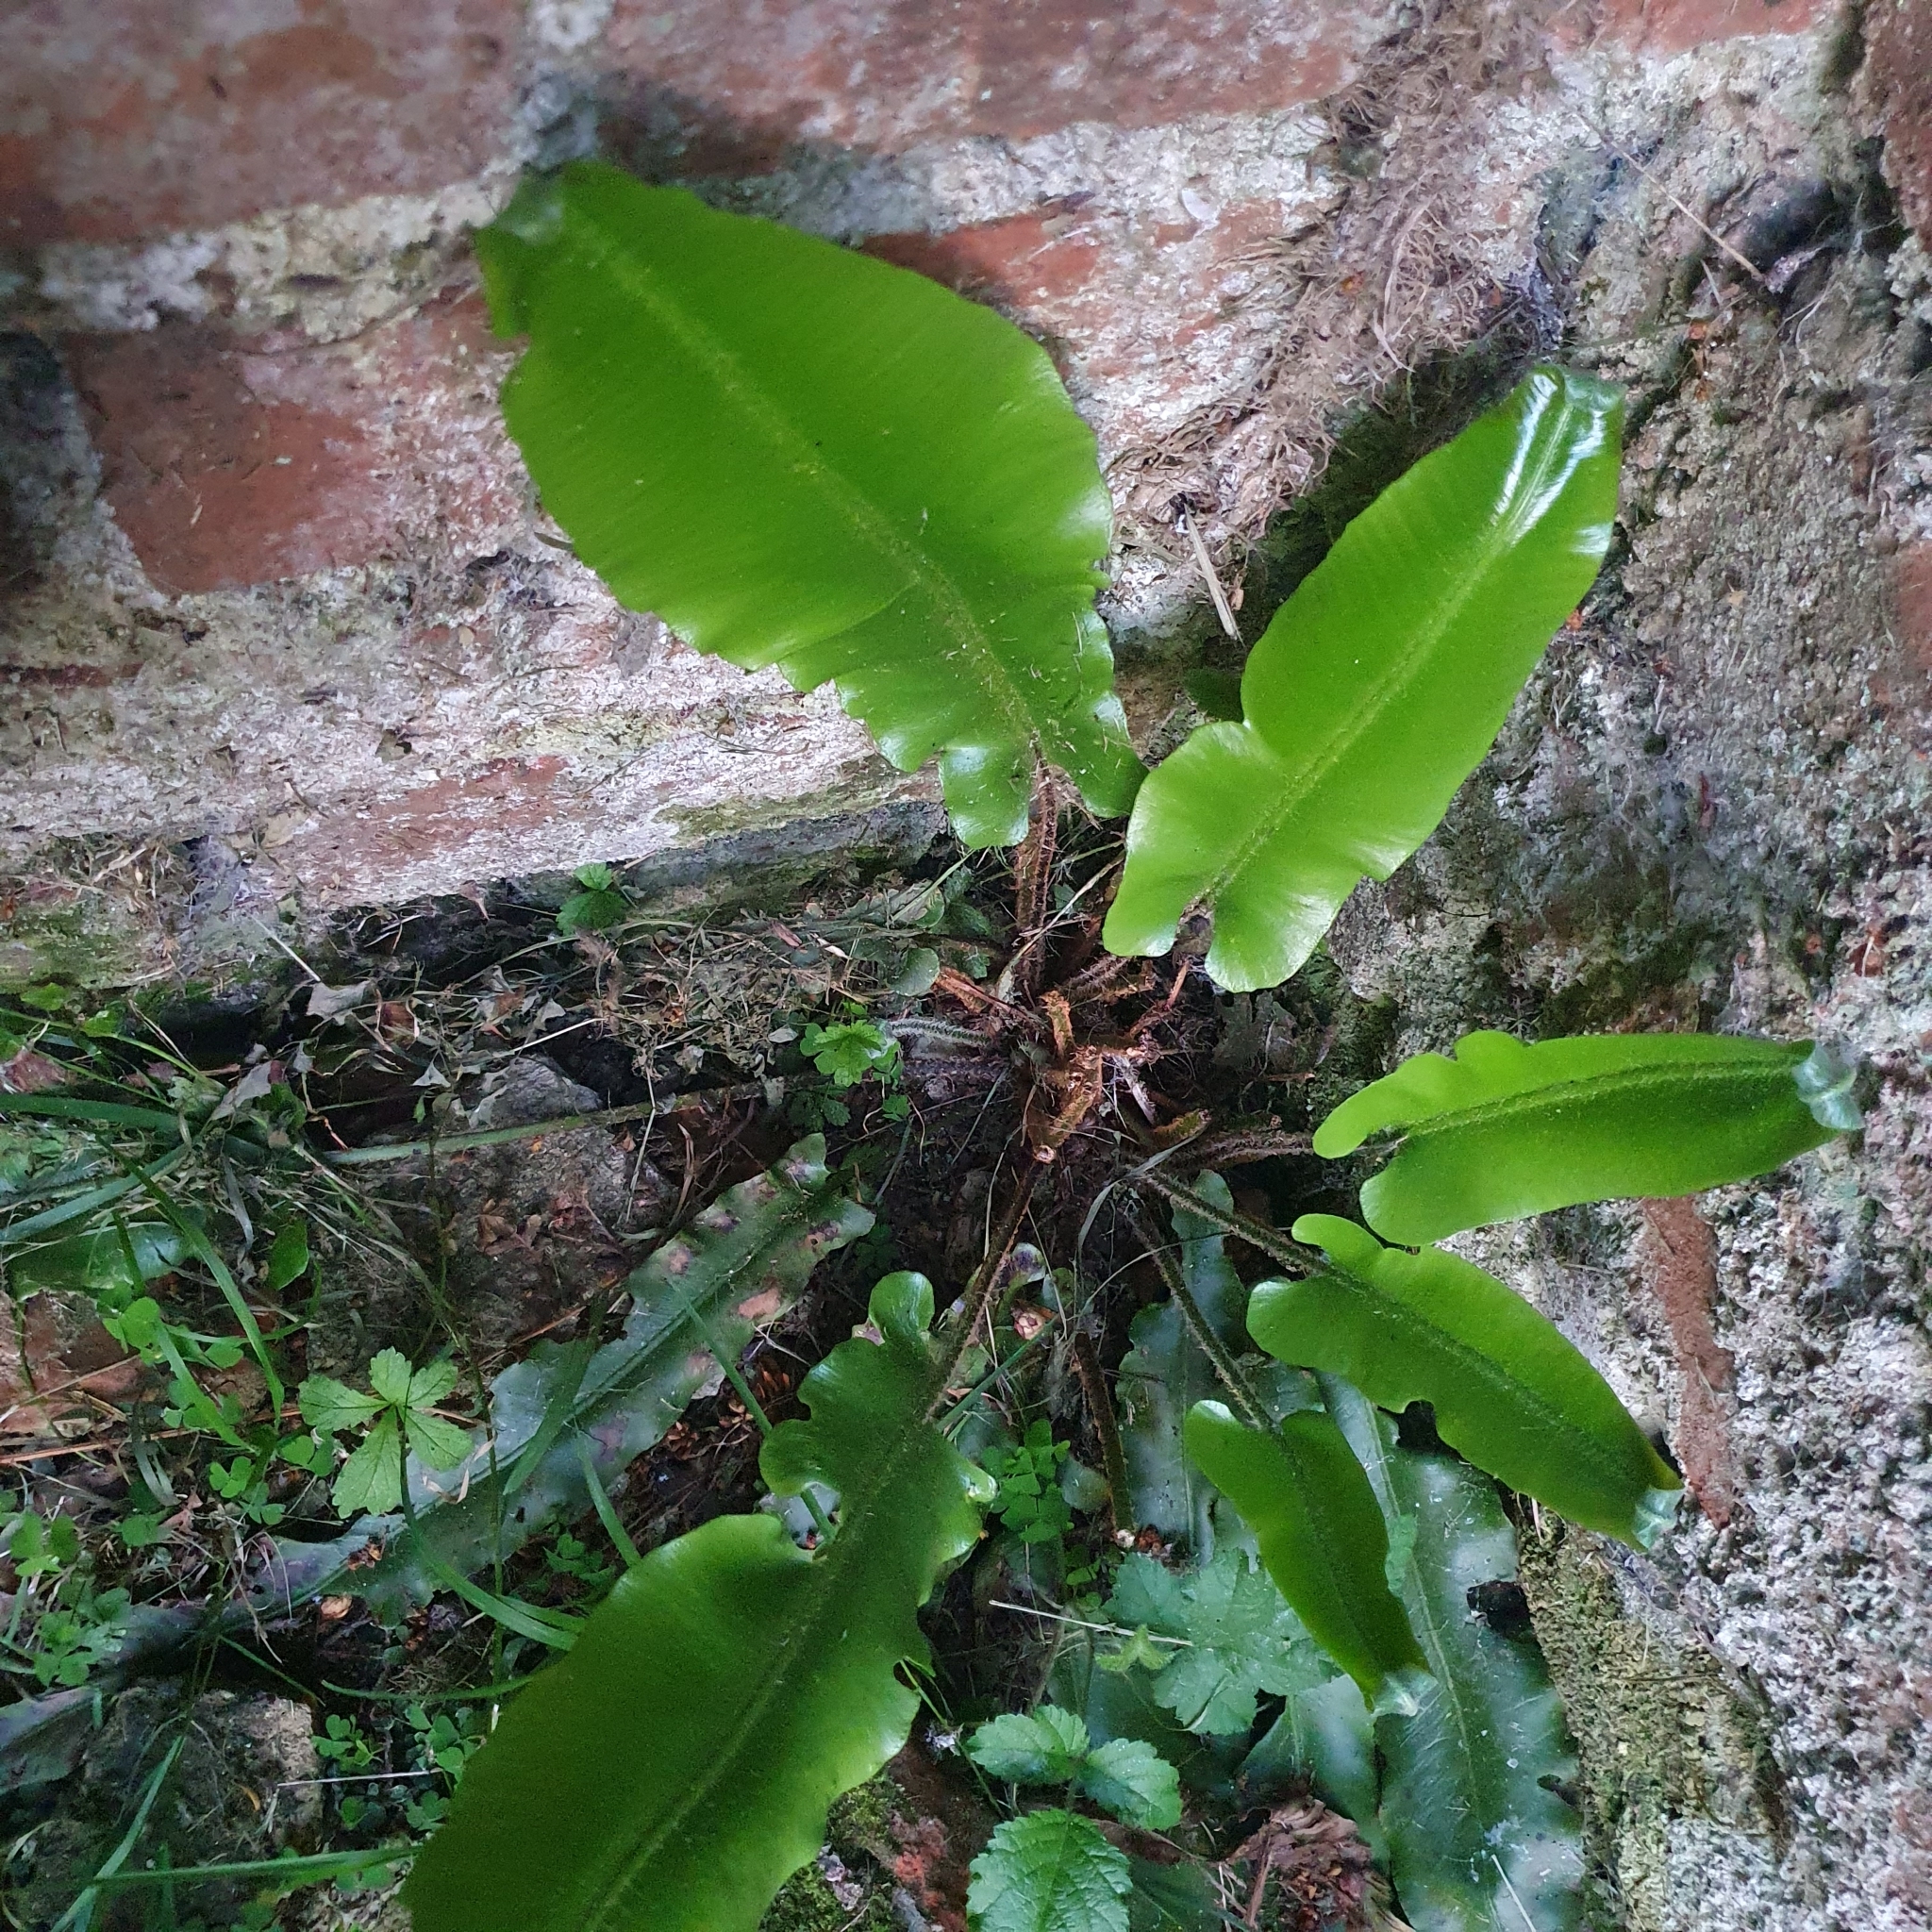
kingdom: Plantae
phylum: Tracheophyta
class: Polypodiopsida
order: Polypodiales
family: Aspleniaceae
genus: Asplenium
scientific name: Asplenium scolopendrium
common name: Hart's-tongue fern
